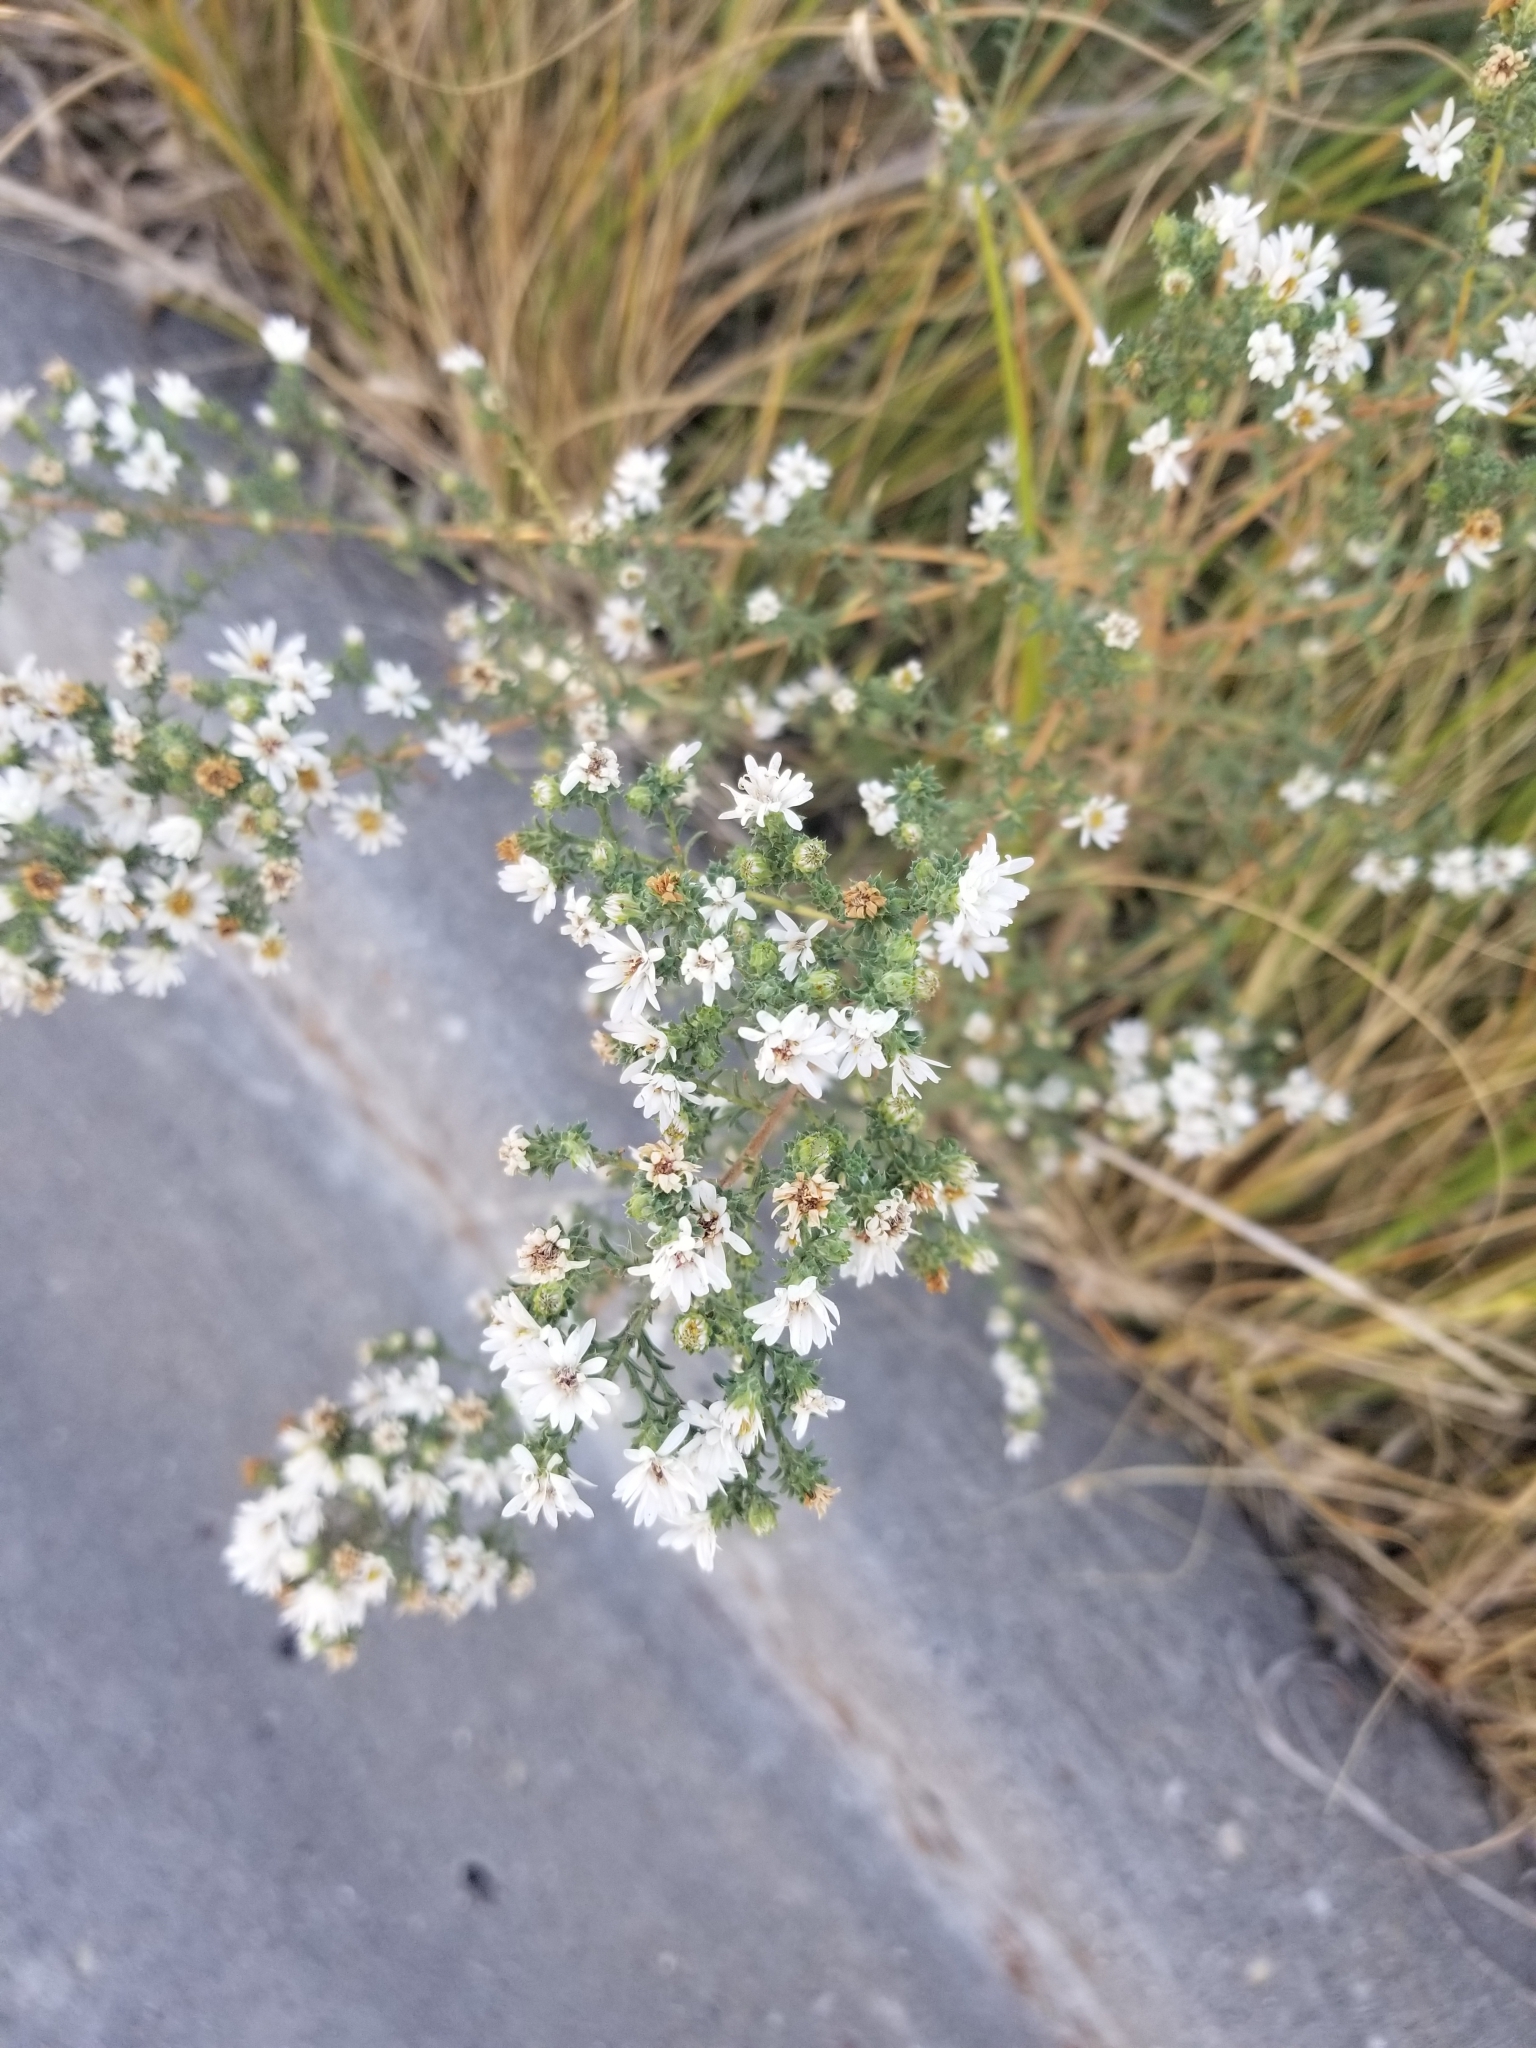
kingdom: Plantae
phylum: Tracheophyta
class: Magnoliopsida
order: Asterales
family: Asteraceae
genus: Symphyotrichum
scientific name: Symphyotrichum ericoides
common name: Heath aster
